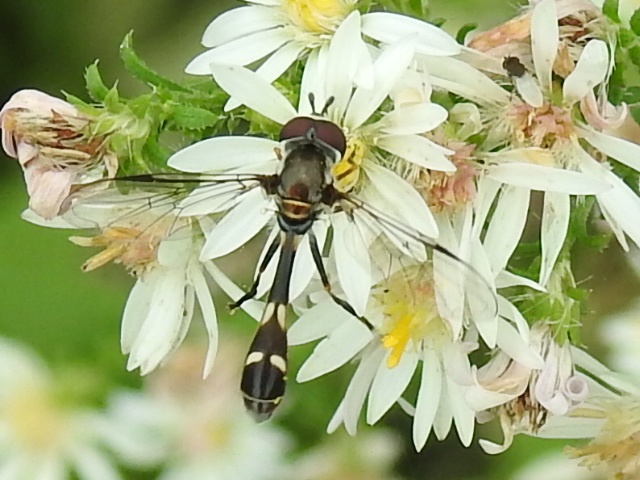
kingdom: Animalia
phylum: Arthropoda
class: Insecta
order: Diptera
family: Syrphidae
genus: Dioprosopa
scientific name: Dioprosopa clavatus
